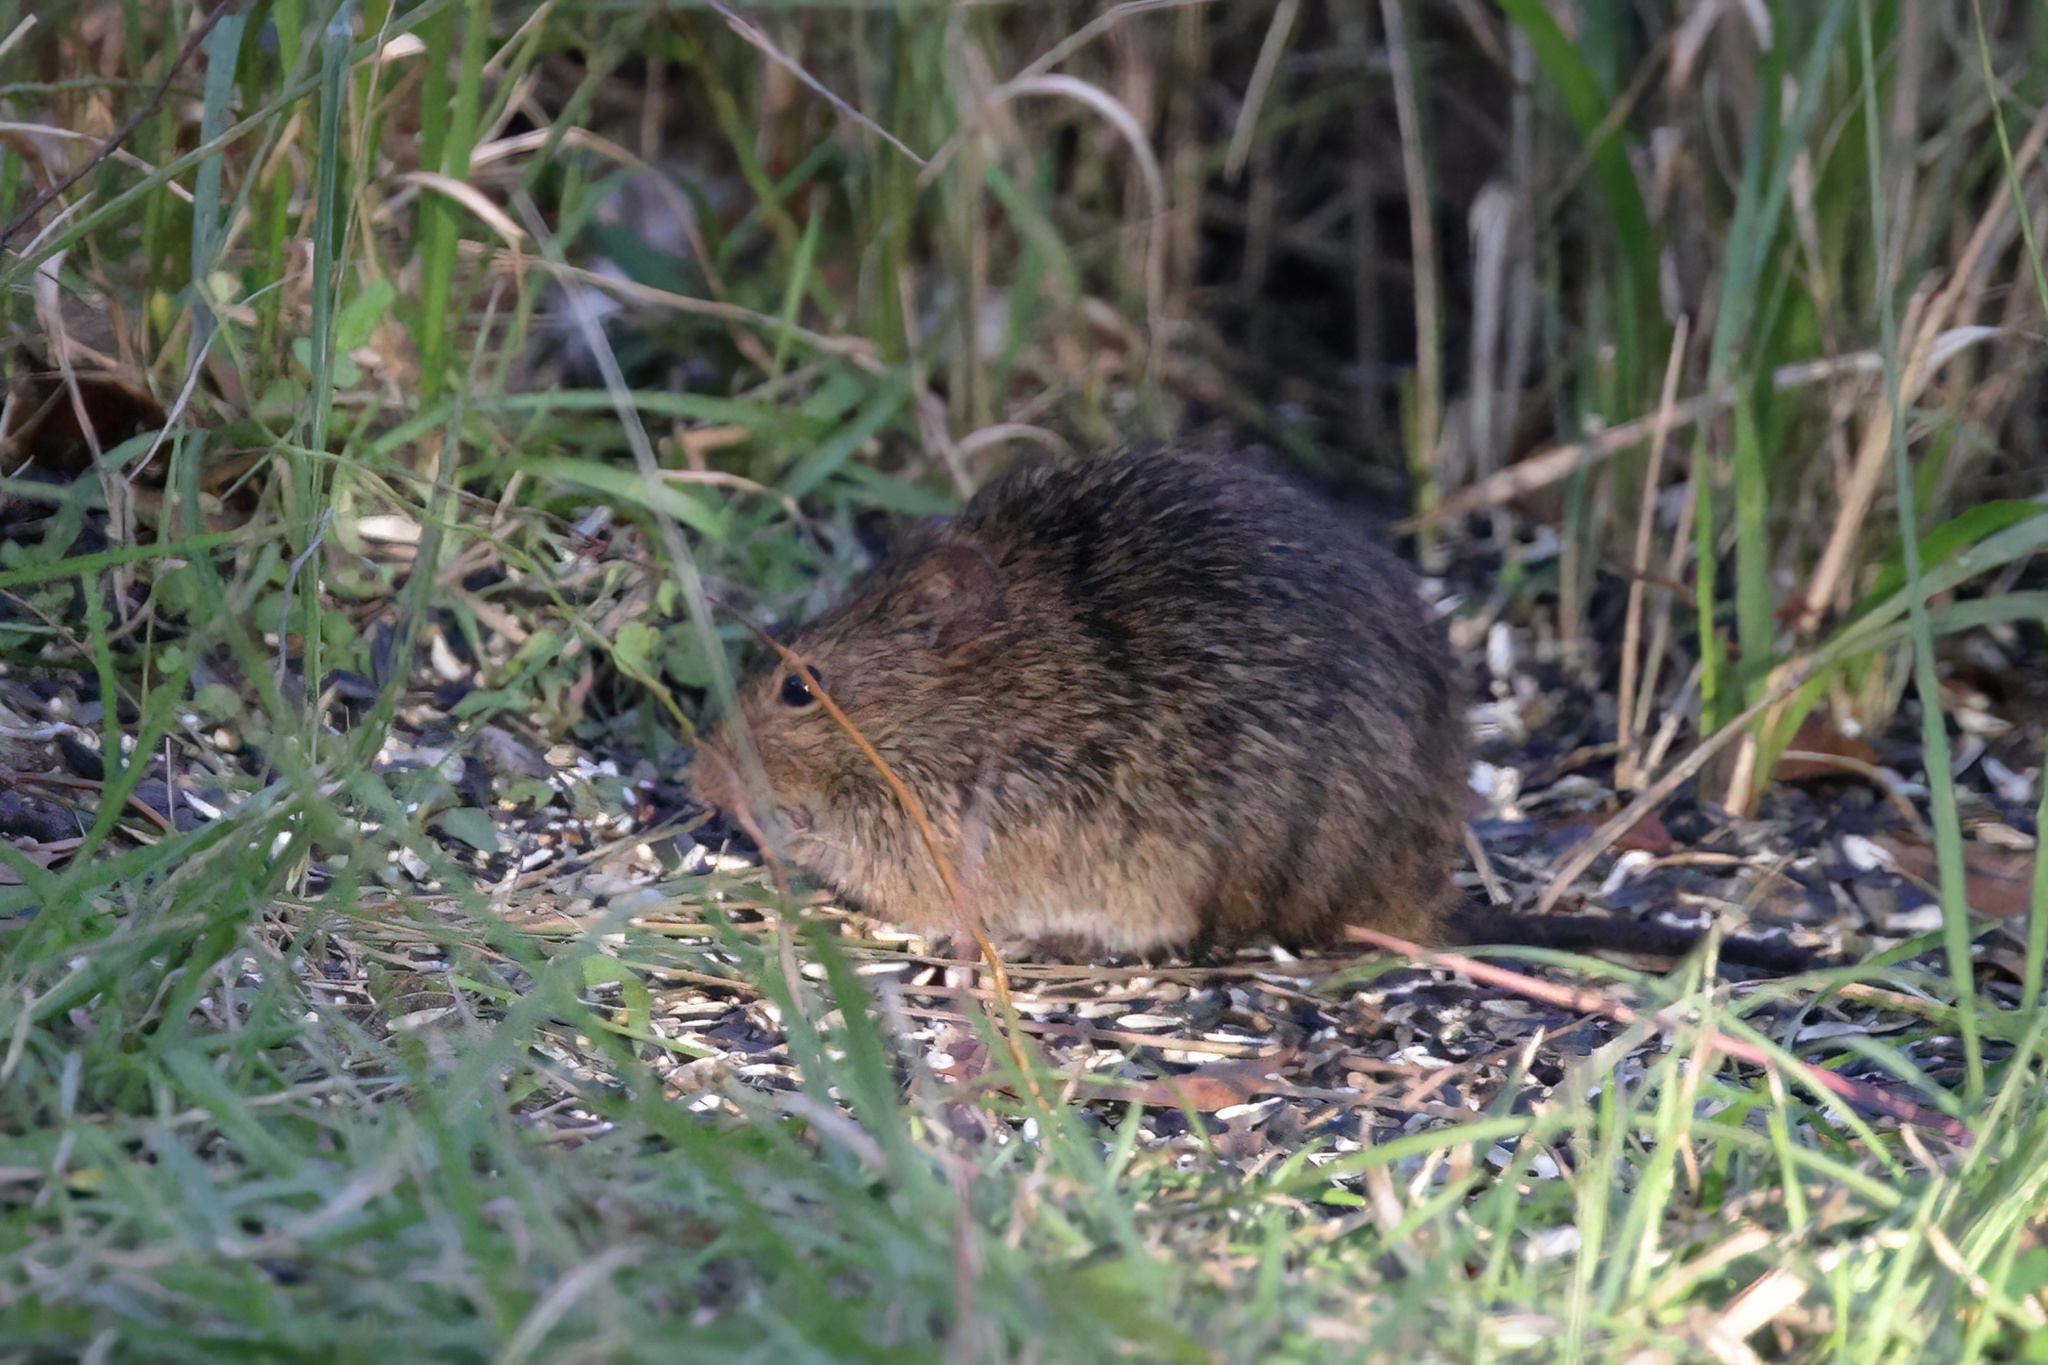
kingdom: Animalia
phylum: Chordata
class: Mammalia
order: Rodentia
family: Cricetidae
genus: Sigmodon
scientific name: Sigmodon hispidus
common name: Hispid cotton rat
